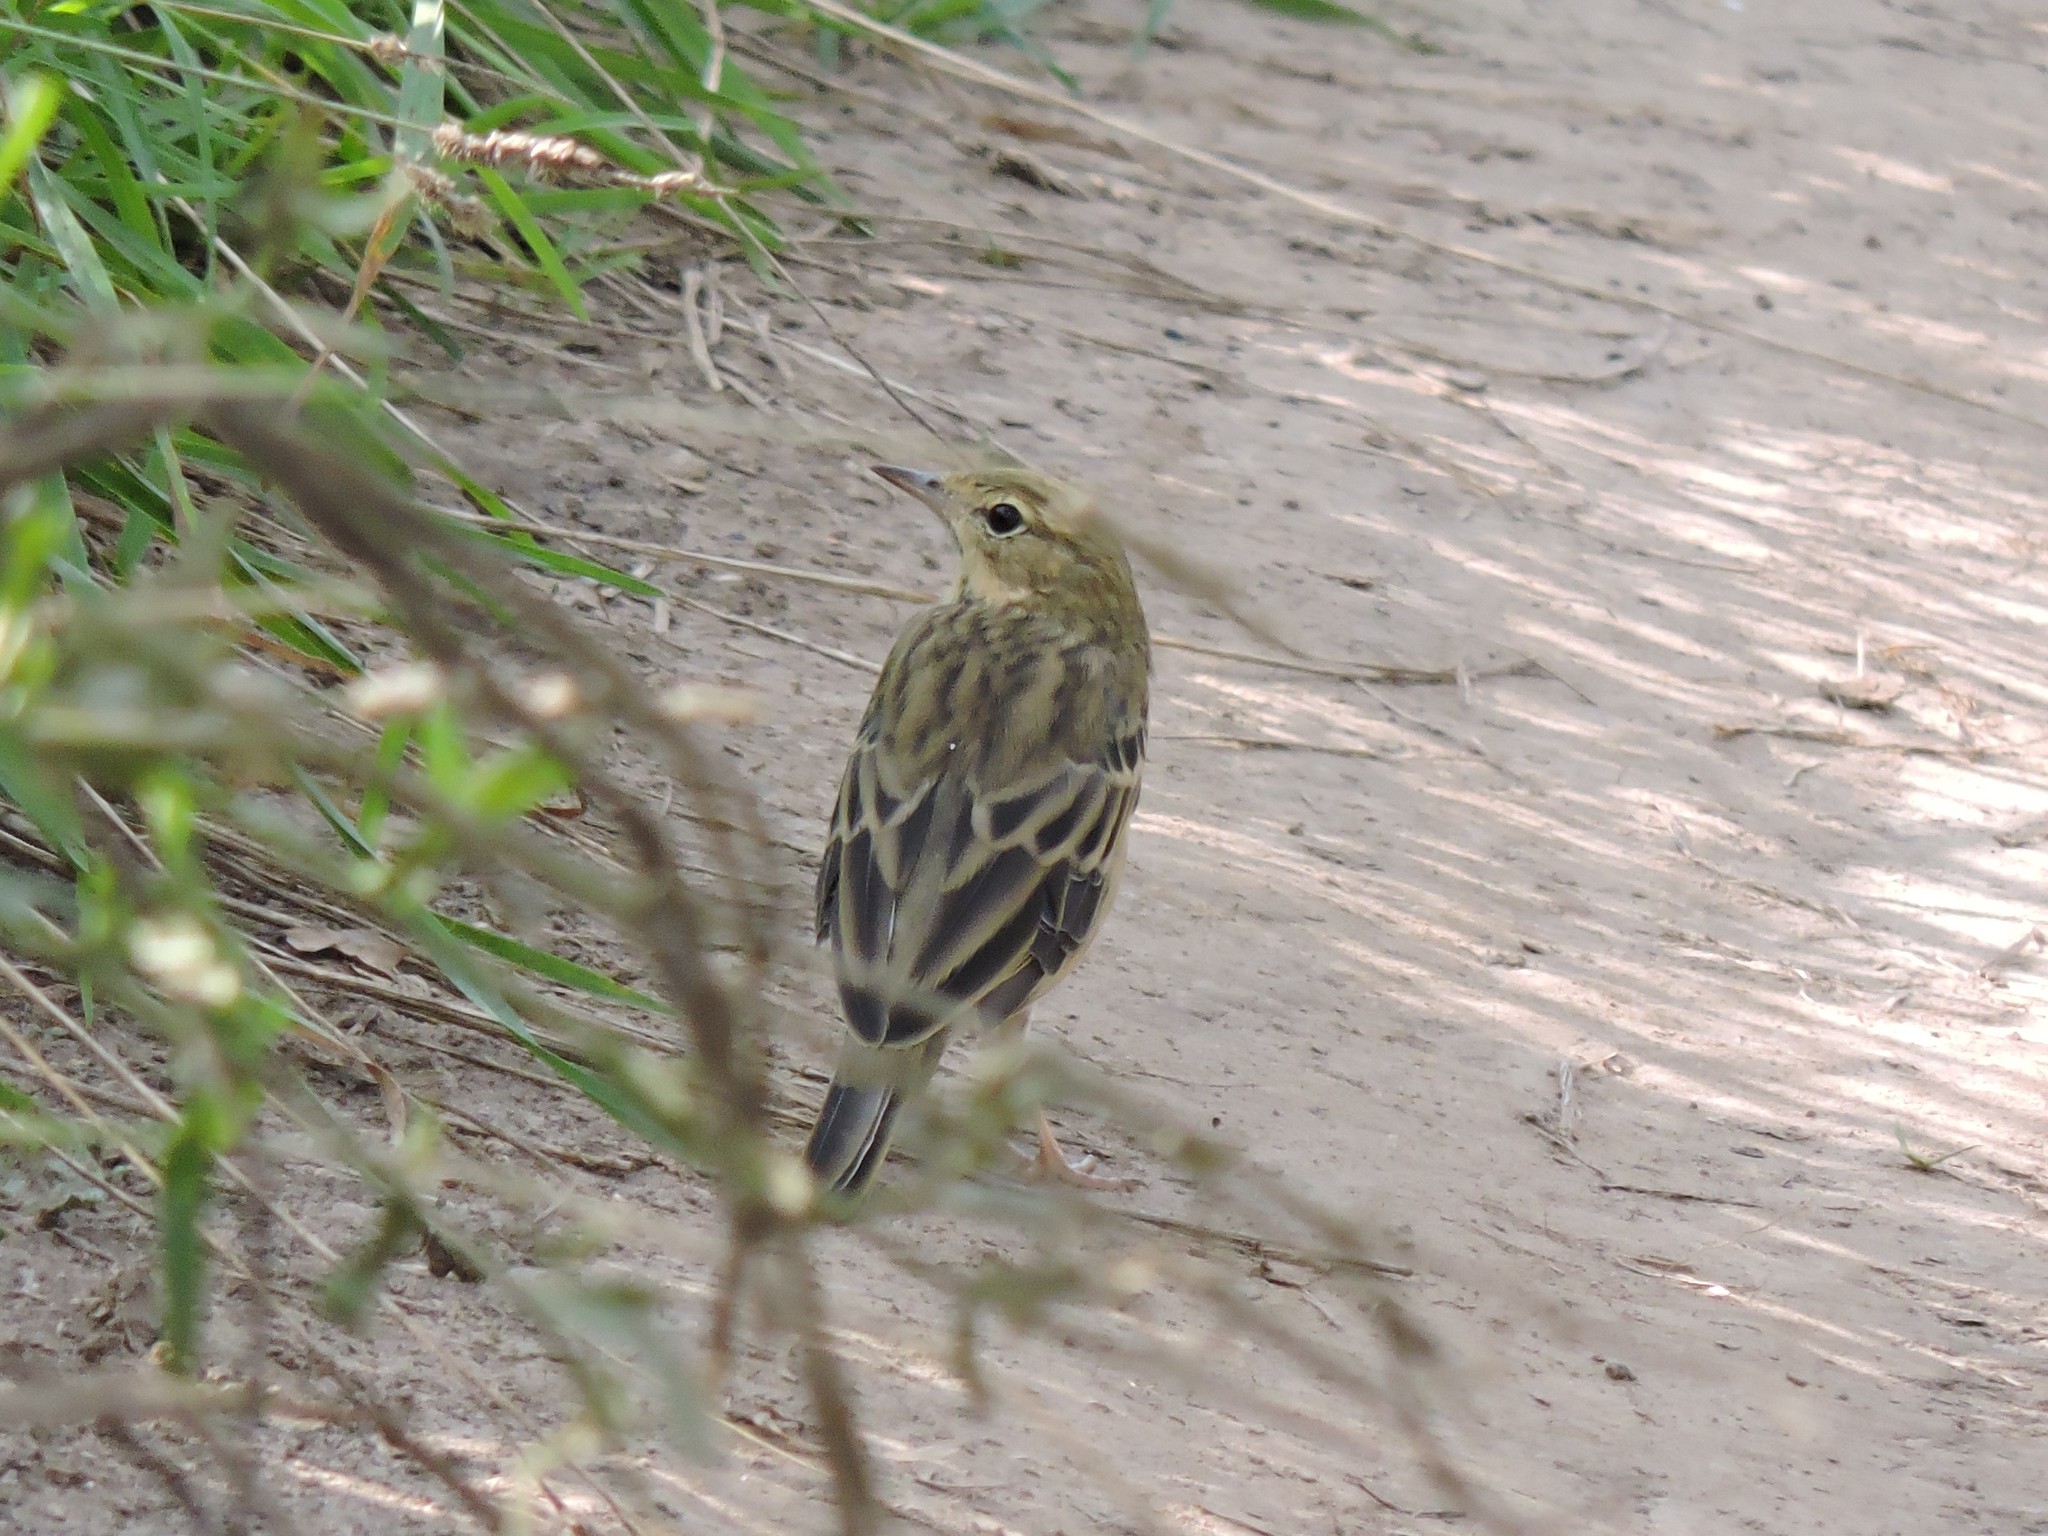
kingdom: Animalia
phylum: Chordata
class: Aves
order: Passeriformes
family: Motacillidae
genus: Anthus
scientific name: Anthus trivialis
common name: Tree pipit
